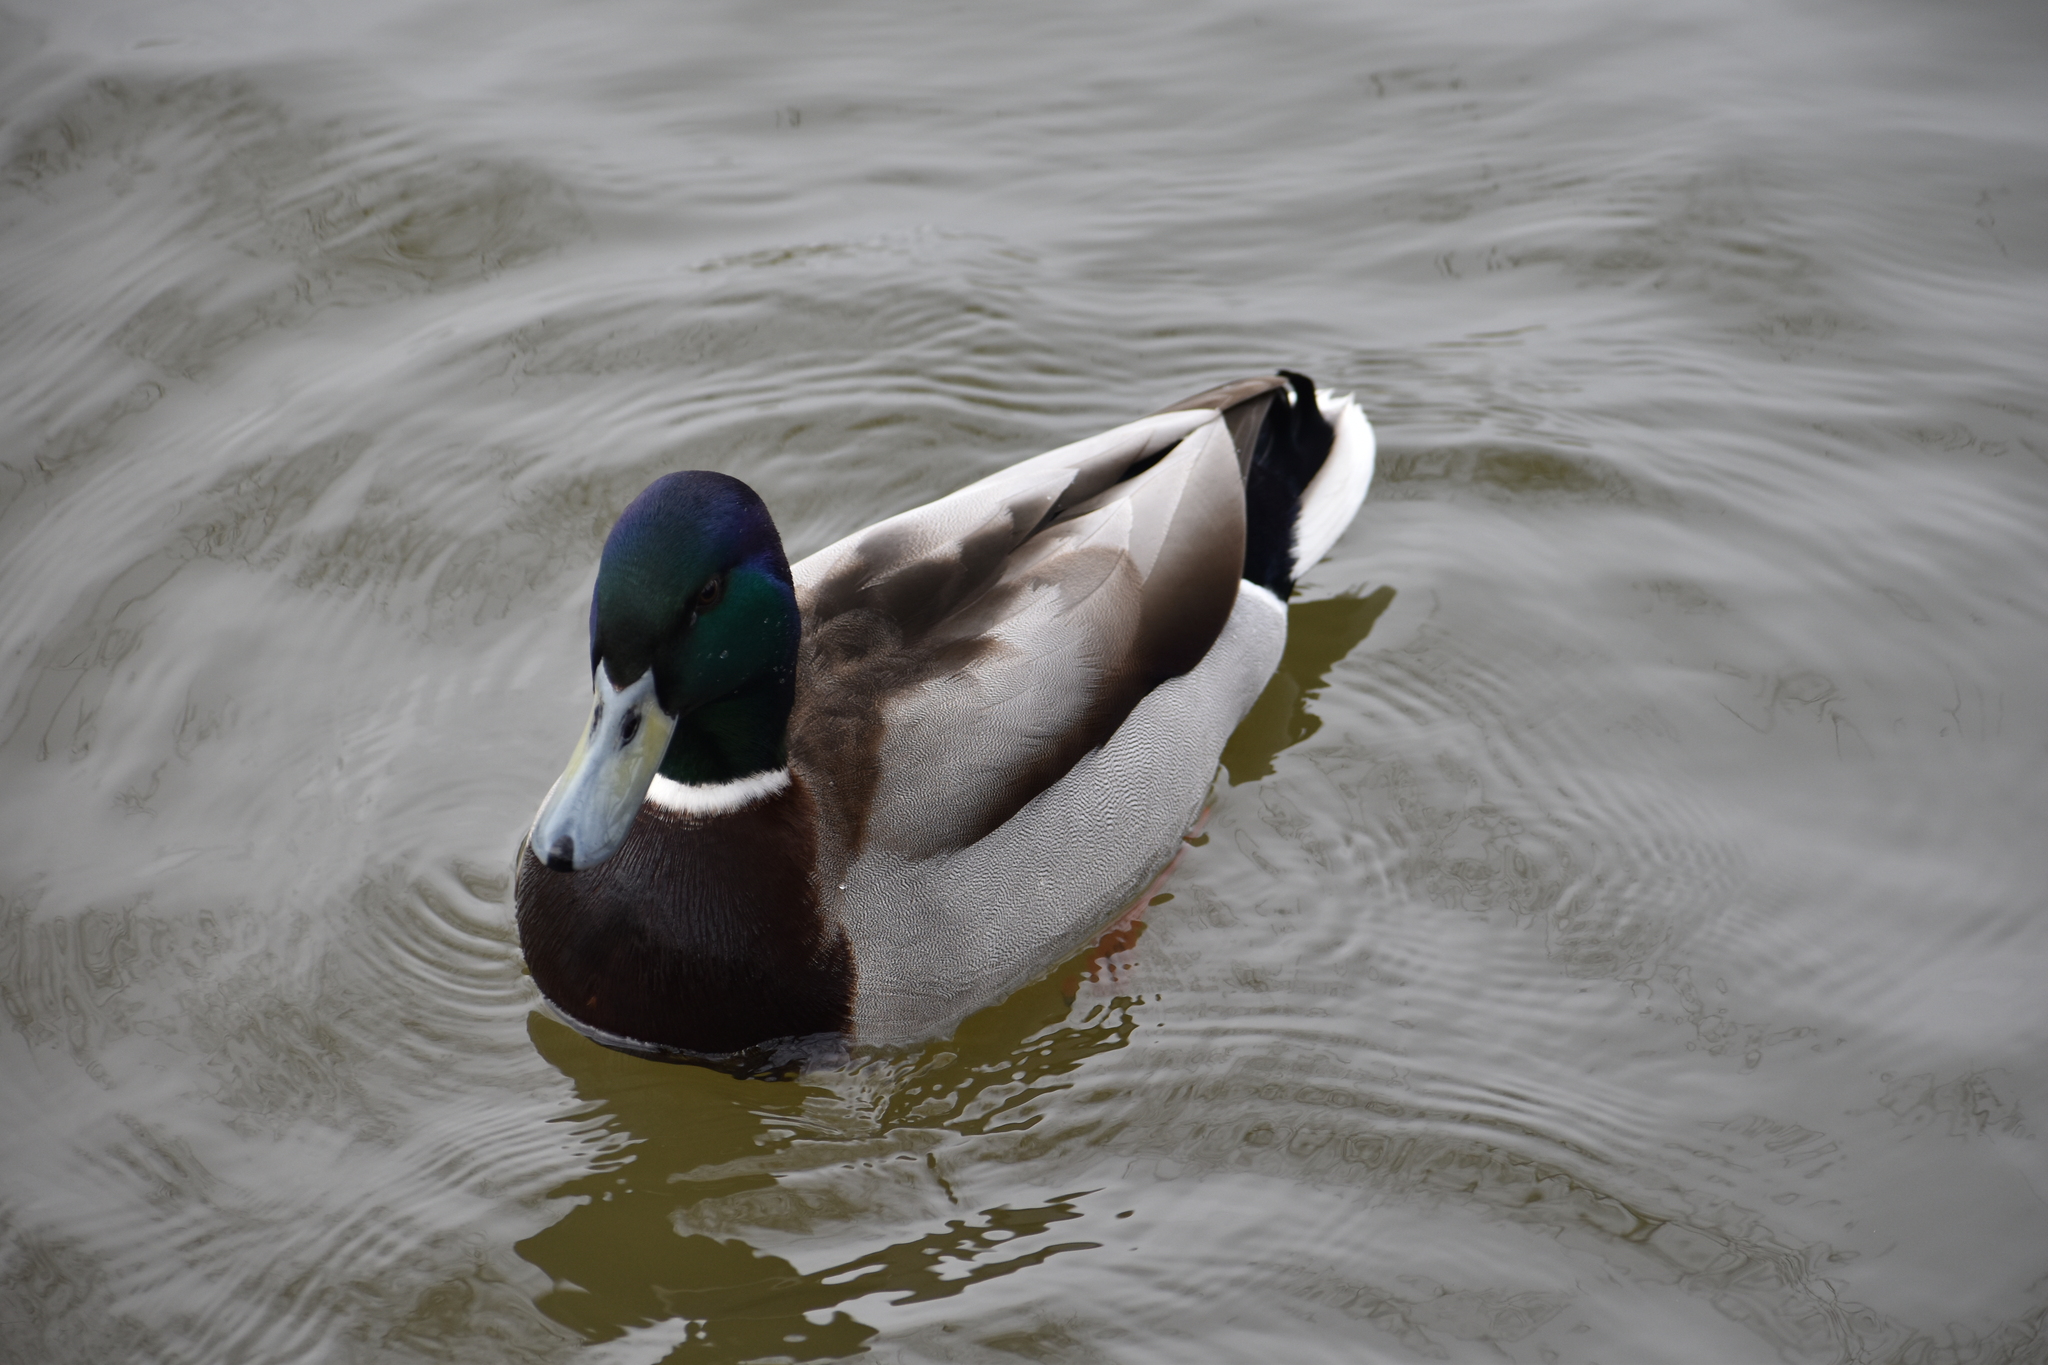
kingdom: Animalia
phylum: Chordata
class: Aves
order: Anseriformes
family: Anatidae
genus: Anas
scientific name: Anas platyrhynchos
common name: Mallard
